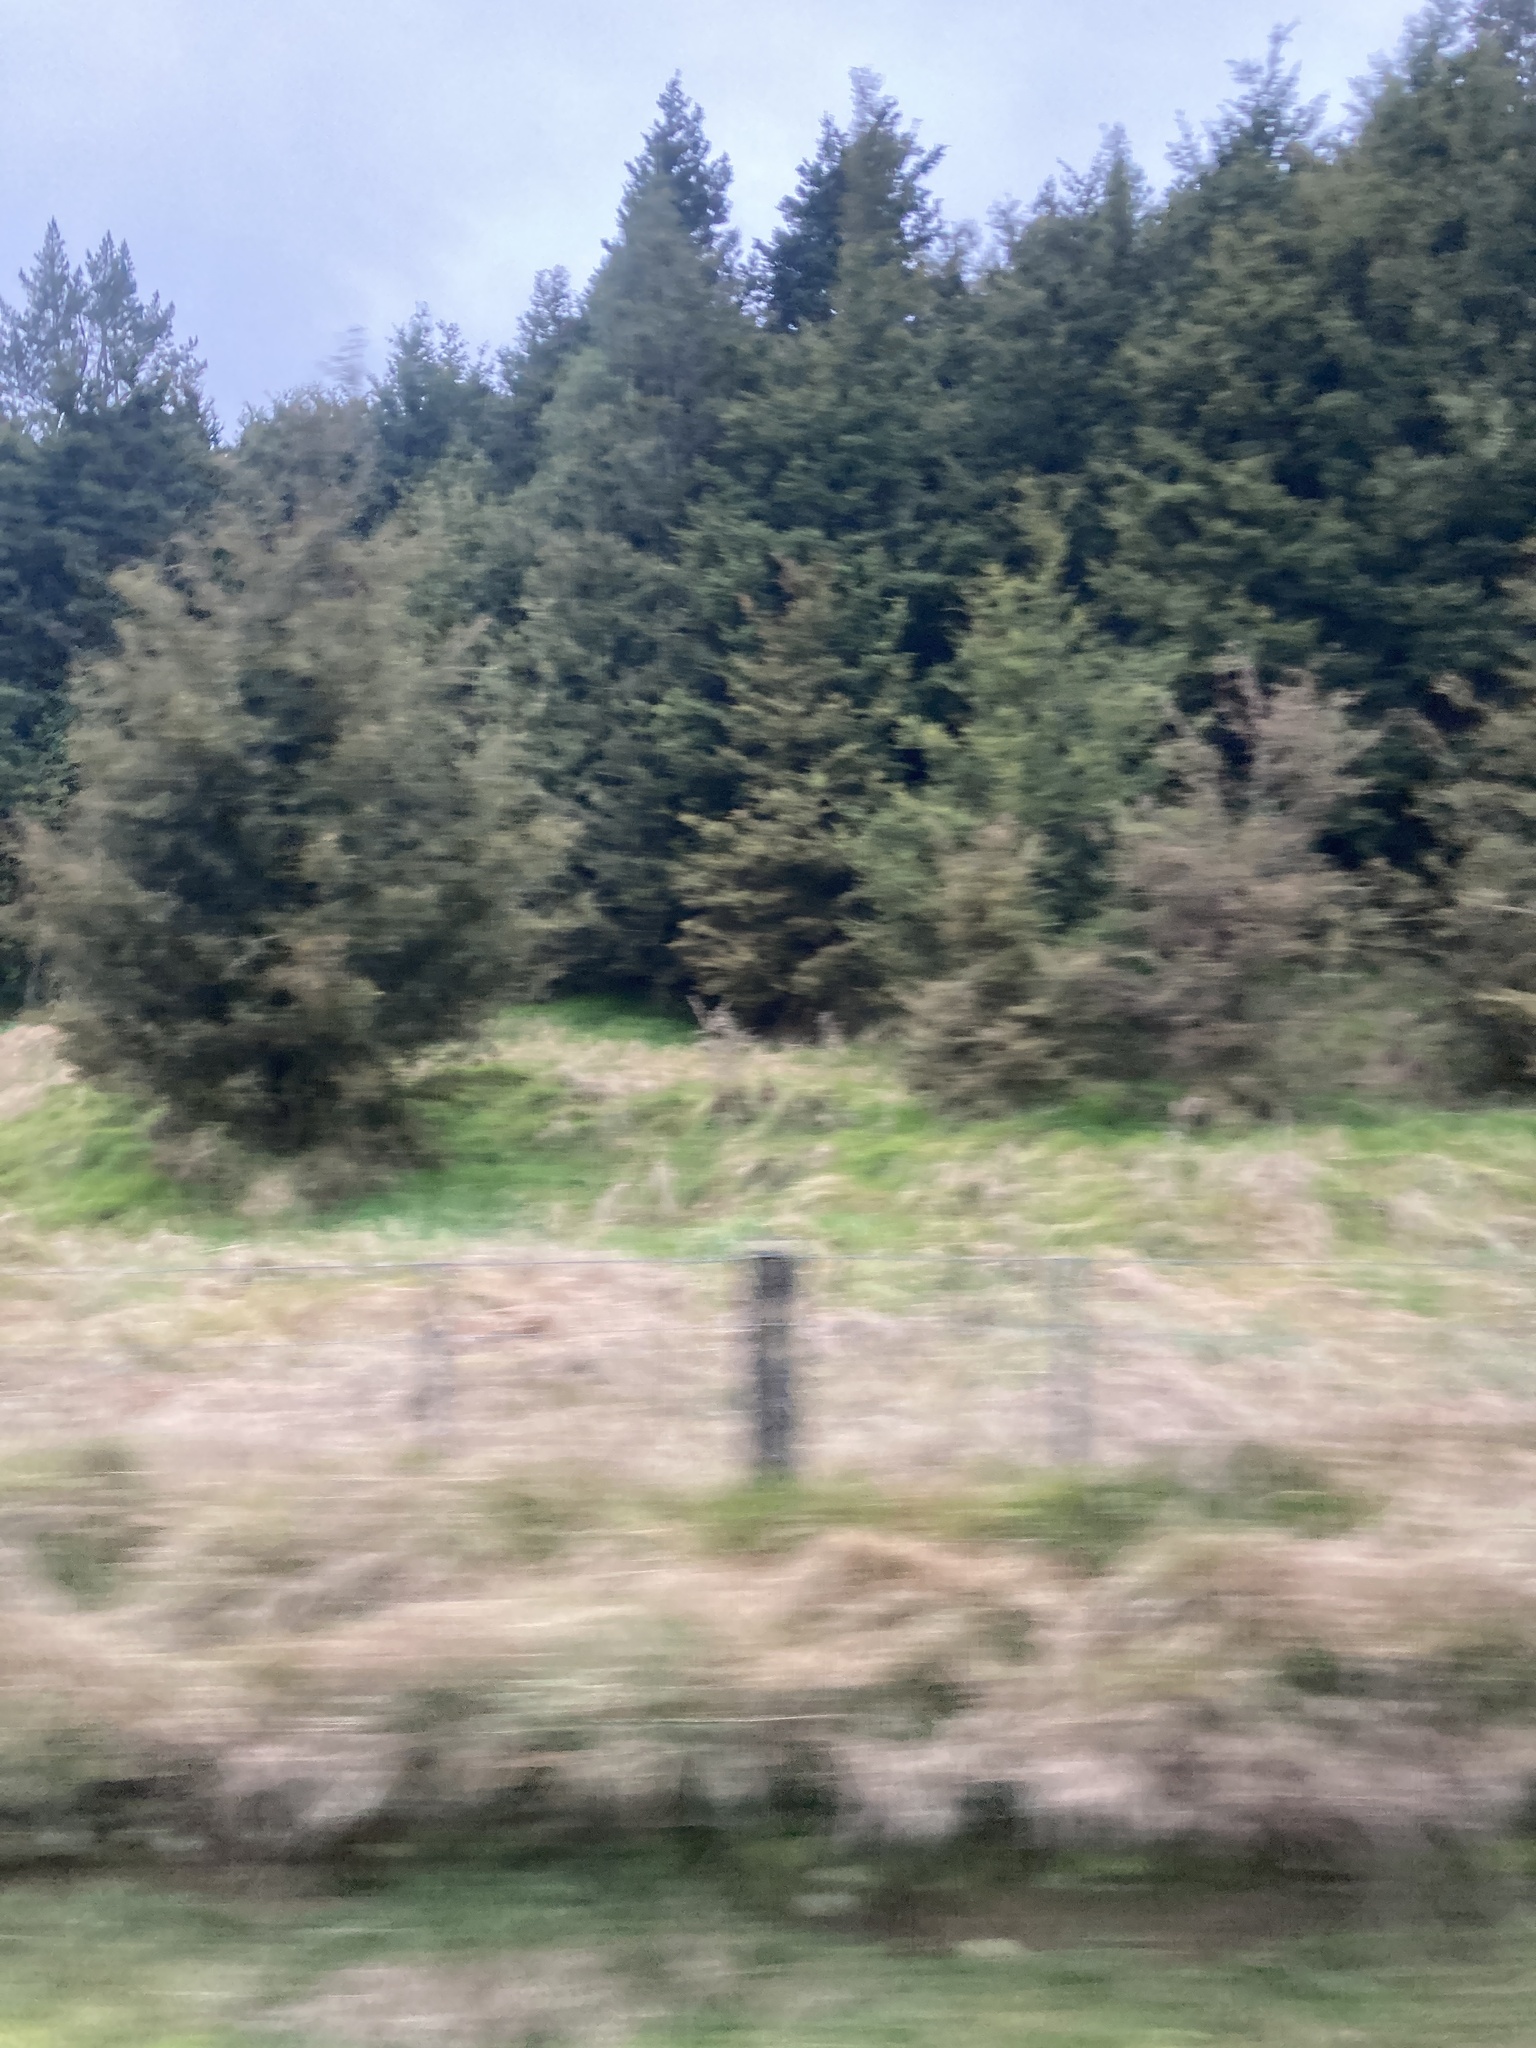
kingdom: Plantae
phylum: Tracheophyta
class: Pinopsida
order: Pinales
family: Podocarpaceae
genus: Podocarpus
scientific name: Podocarpus totara
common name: Totara
